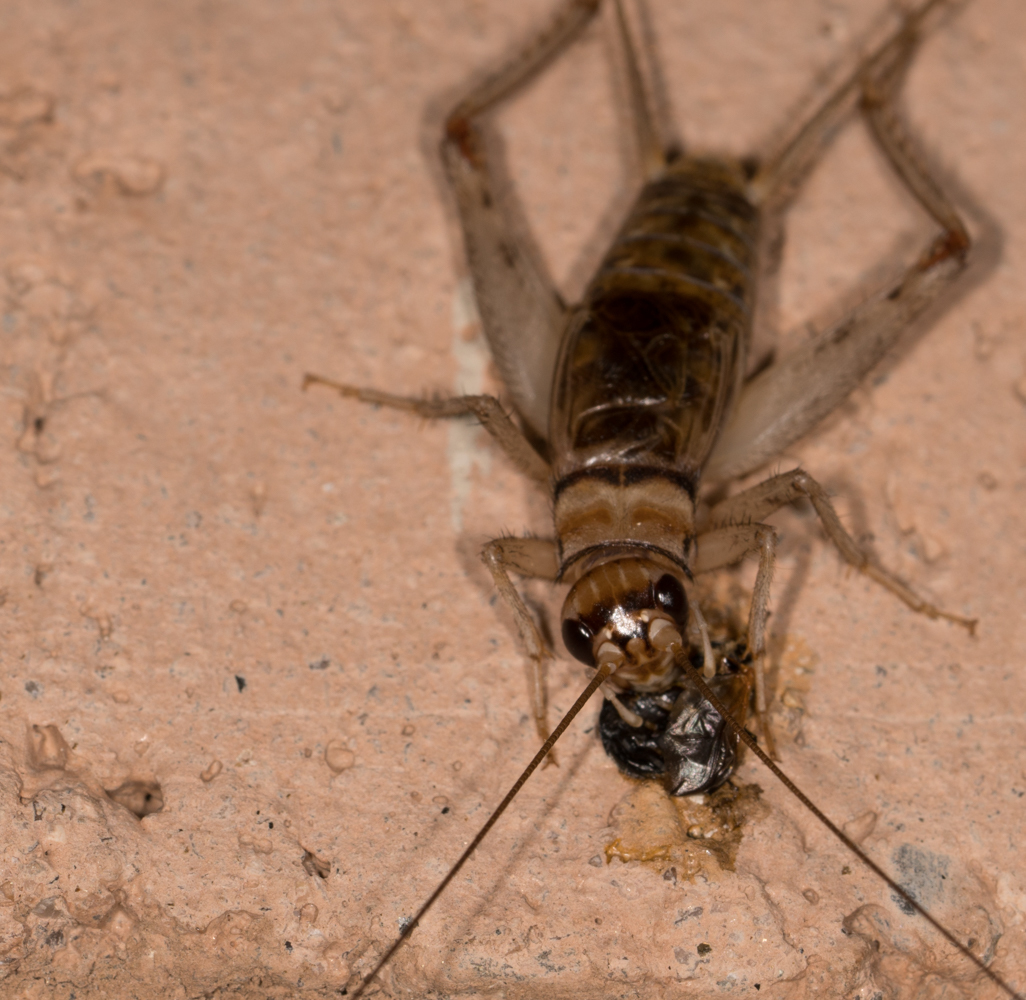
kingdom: Animalia
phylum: Arthropoda
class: Insecta
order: Orthoptera
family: Gryllidae
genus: Gryllodes
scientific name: Gryllodes sigillatus
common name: Tropical house cricket
